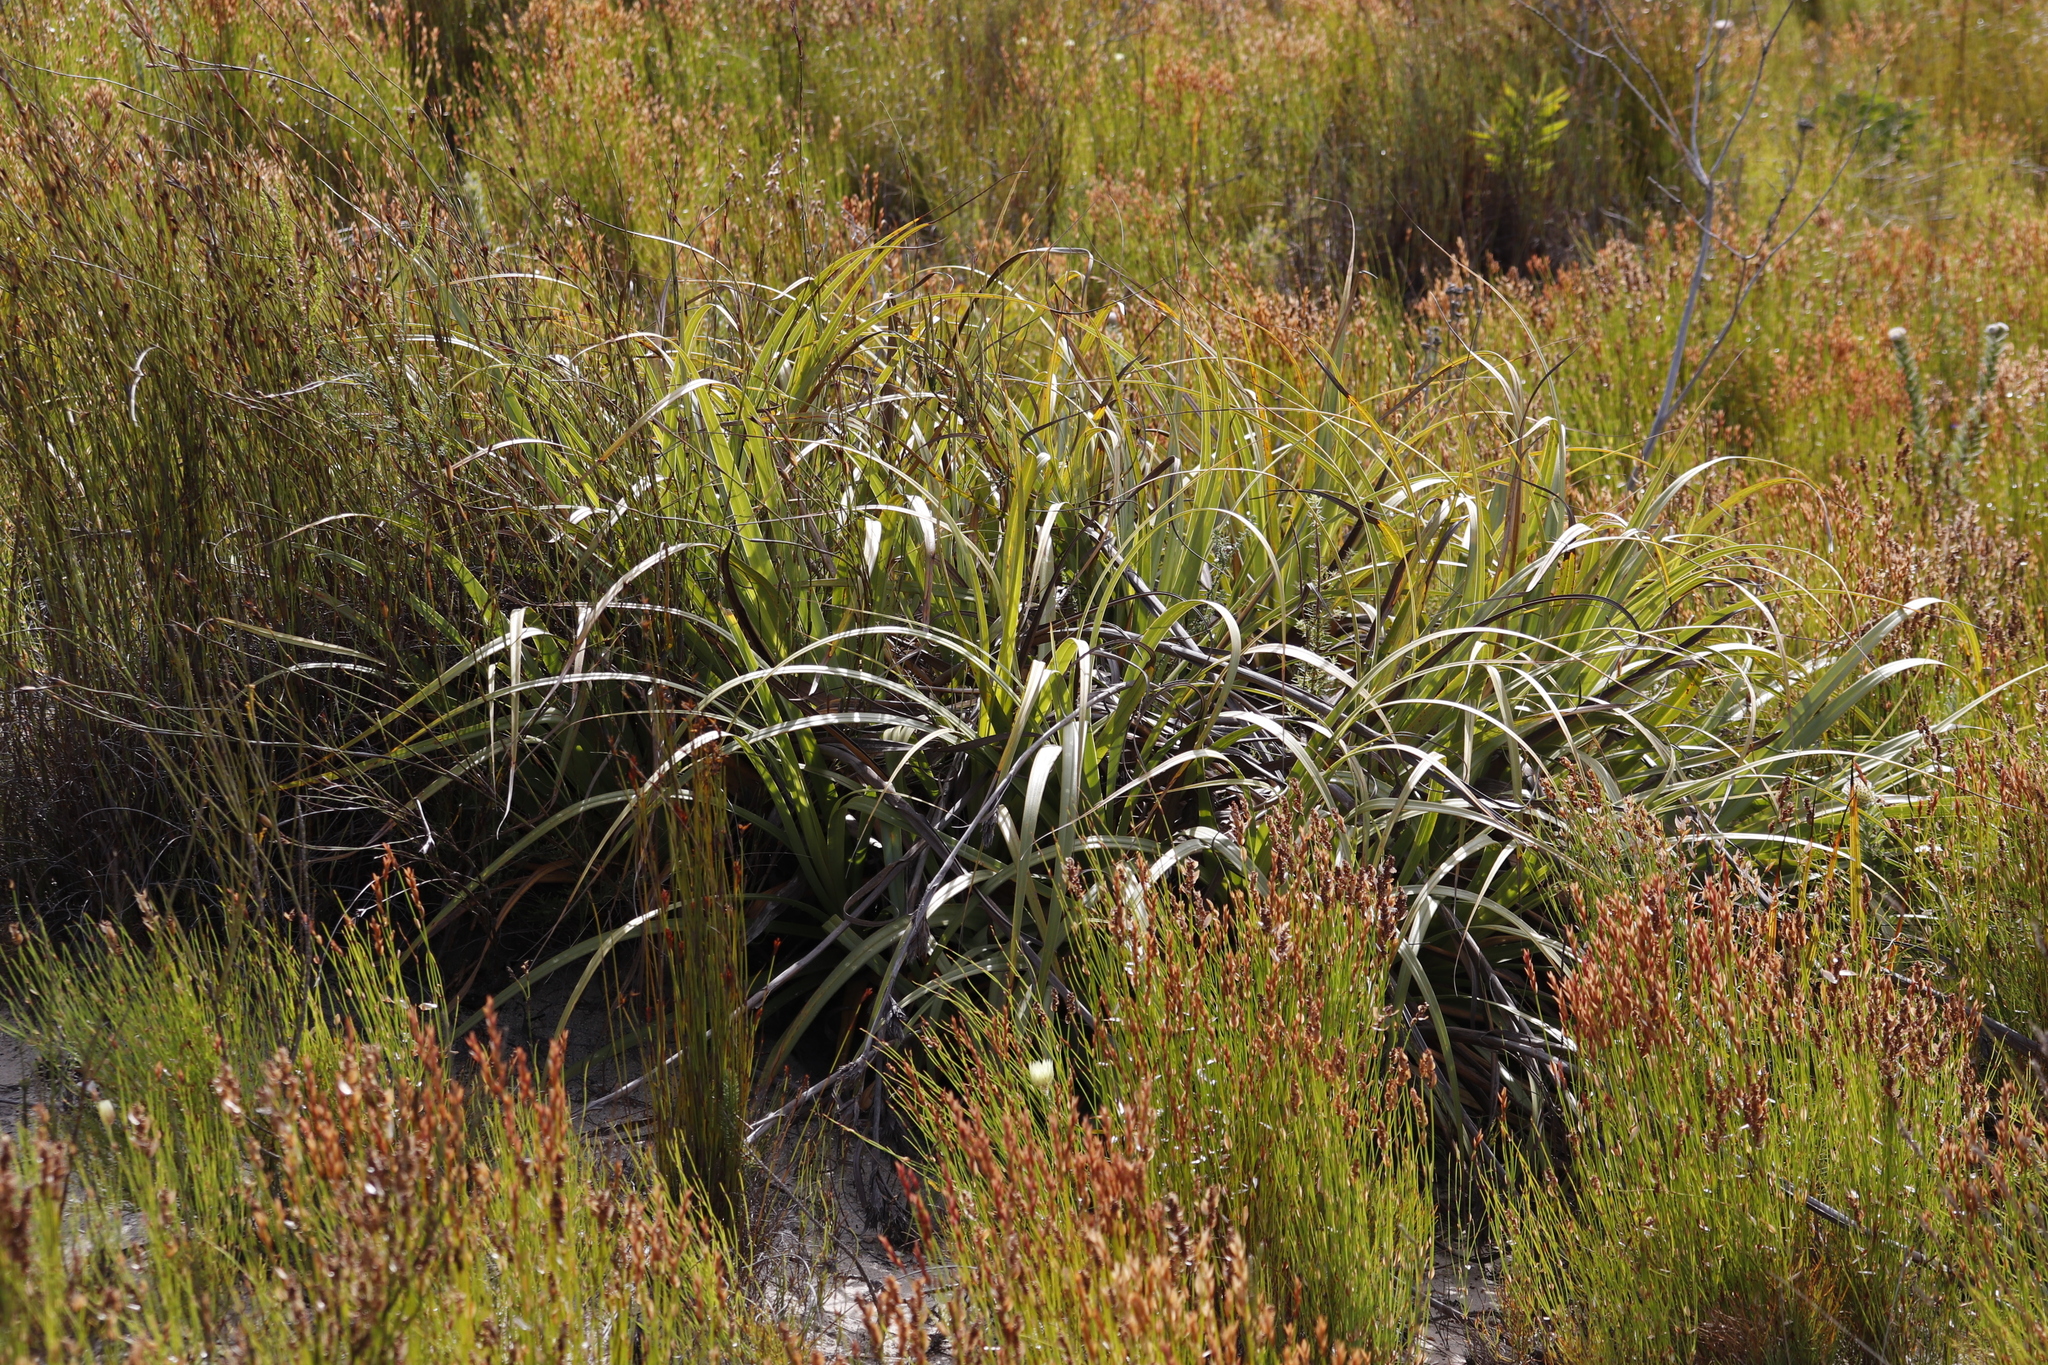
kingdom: Plantae
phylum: Tracheophyta
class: Liliopsida
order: Poales
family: Cyperaceae
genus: Tetraria
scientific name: Tetraria thermalis
